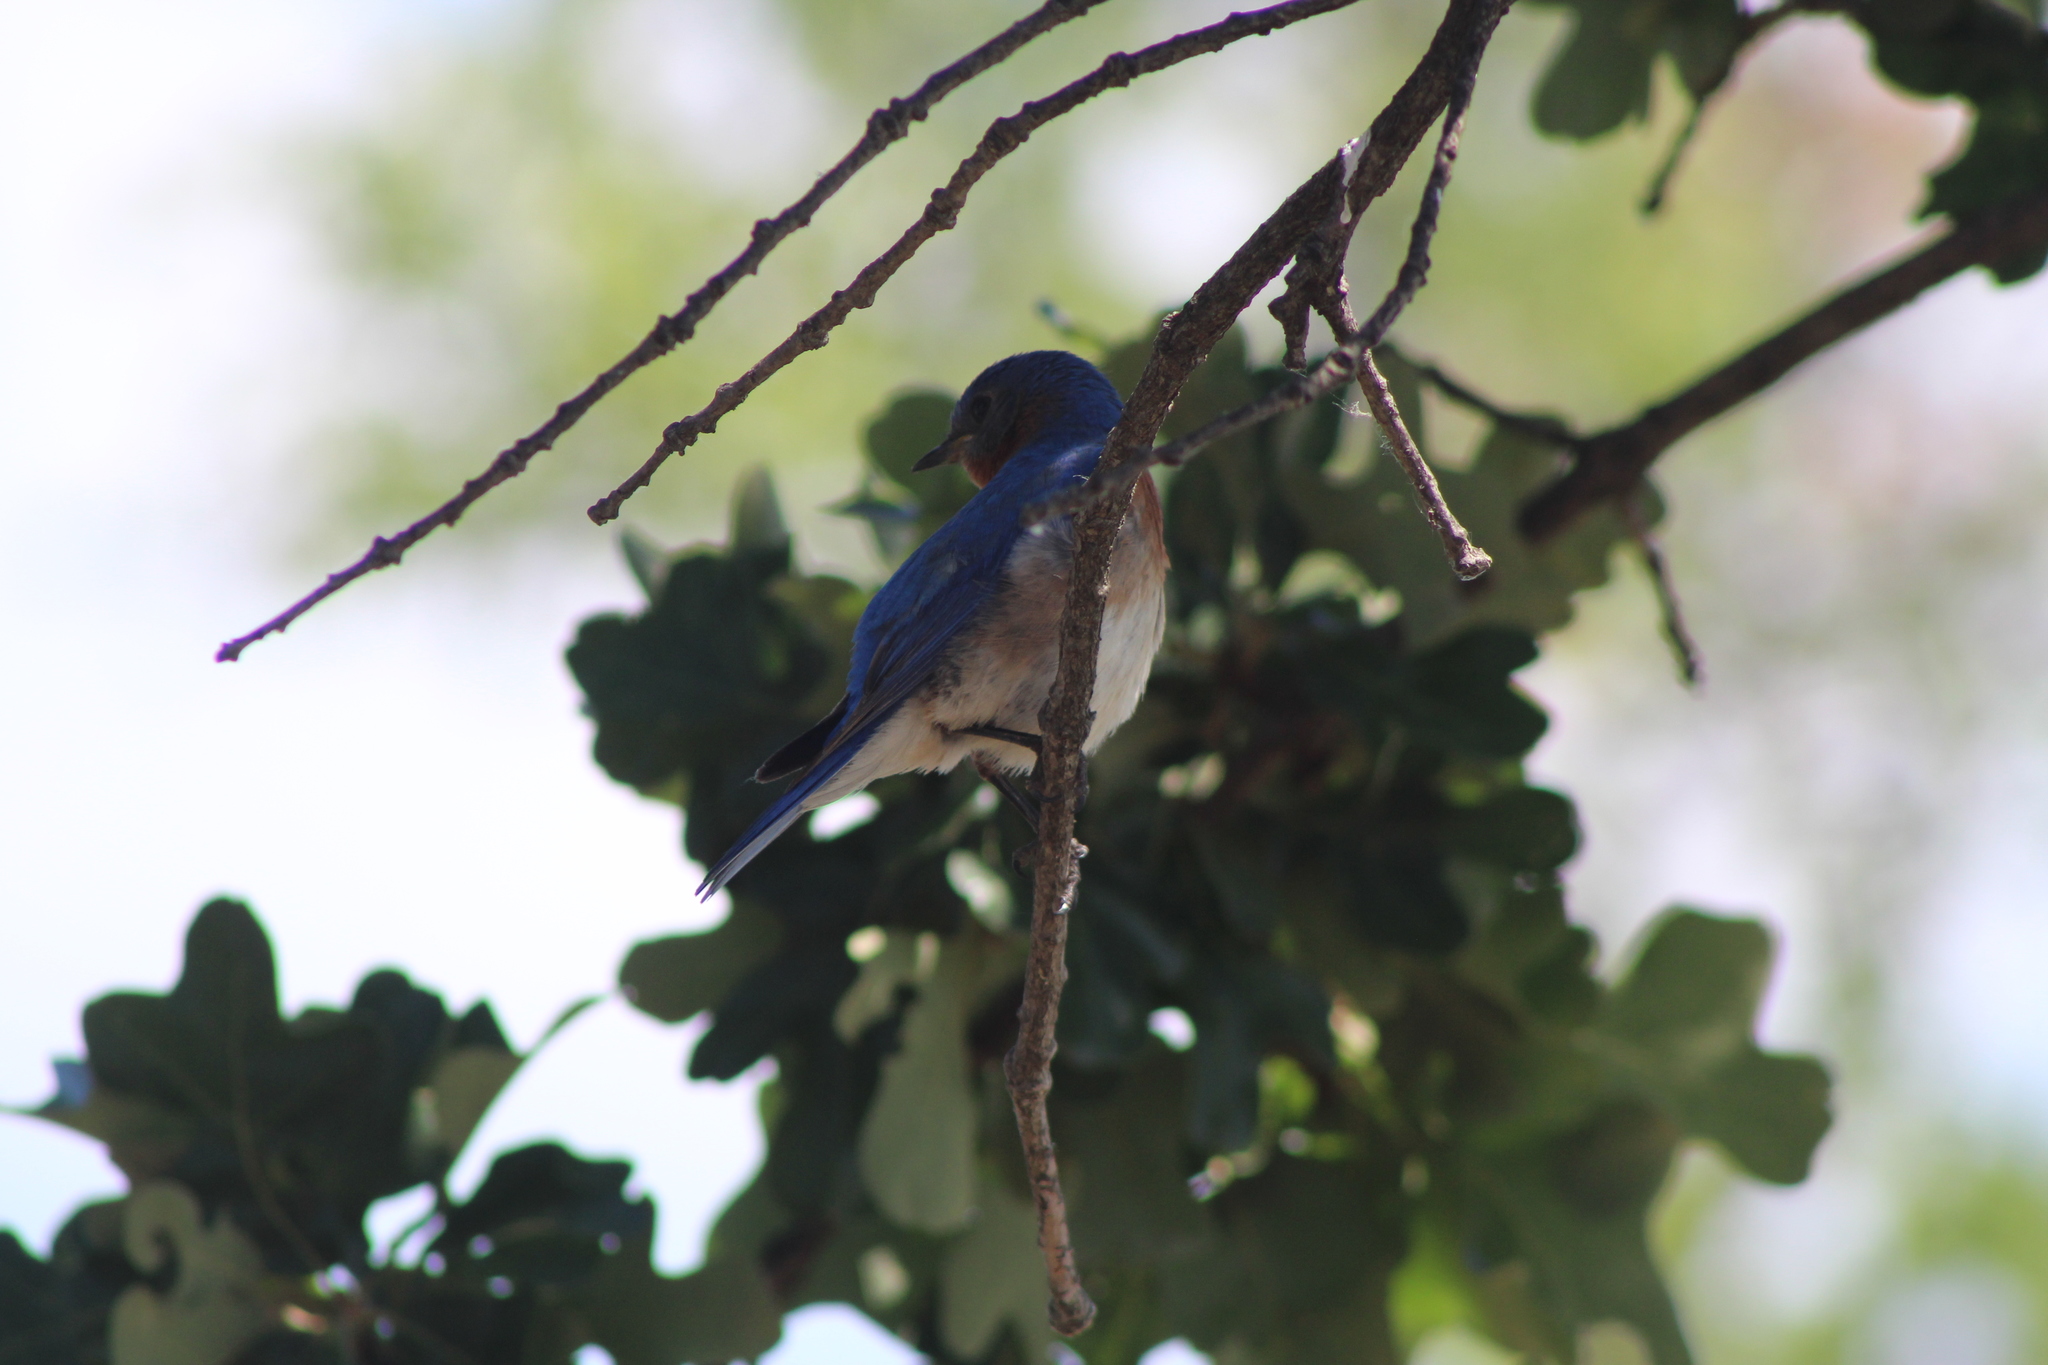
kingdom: Animalia
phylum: Chordata
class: Aves
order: Passeriformes
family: Turdidae
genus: Sialia
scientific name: Sialia sialis
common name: Eastern bluebird
